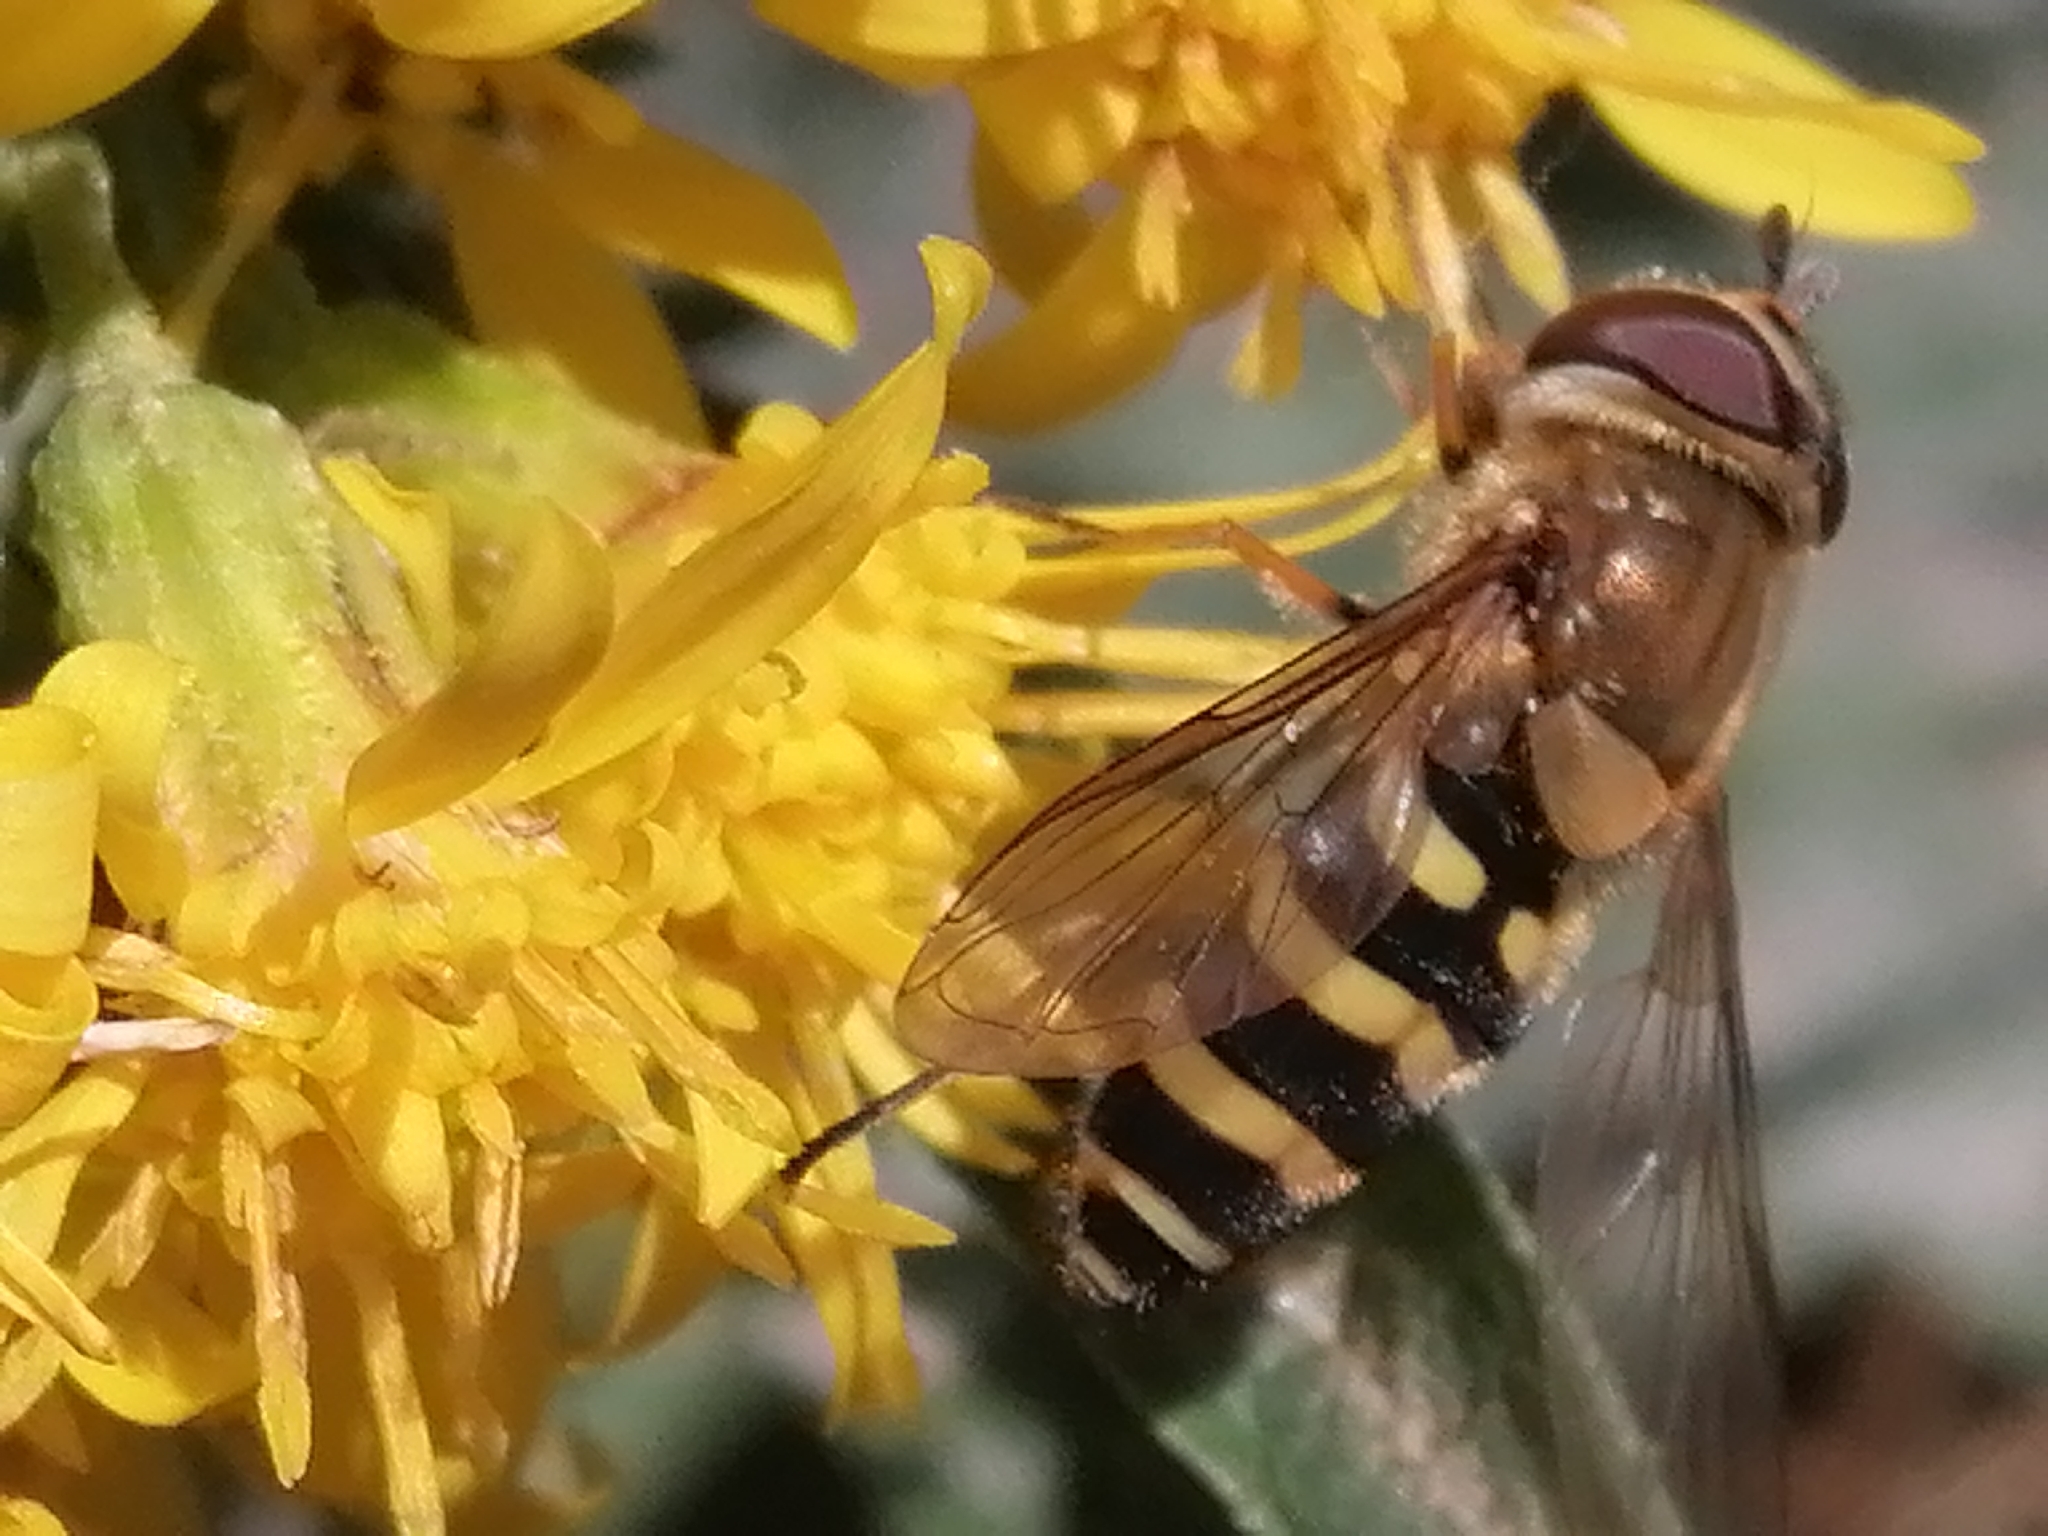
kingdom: Animalia
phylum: Arthropoda
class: Insecta
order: Diptera
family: Syrphidae
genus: Syrphus
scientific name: Syrphus torvus
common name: Hairy-eyed flower fly
